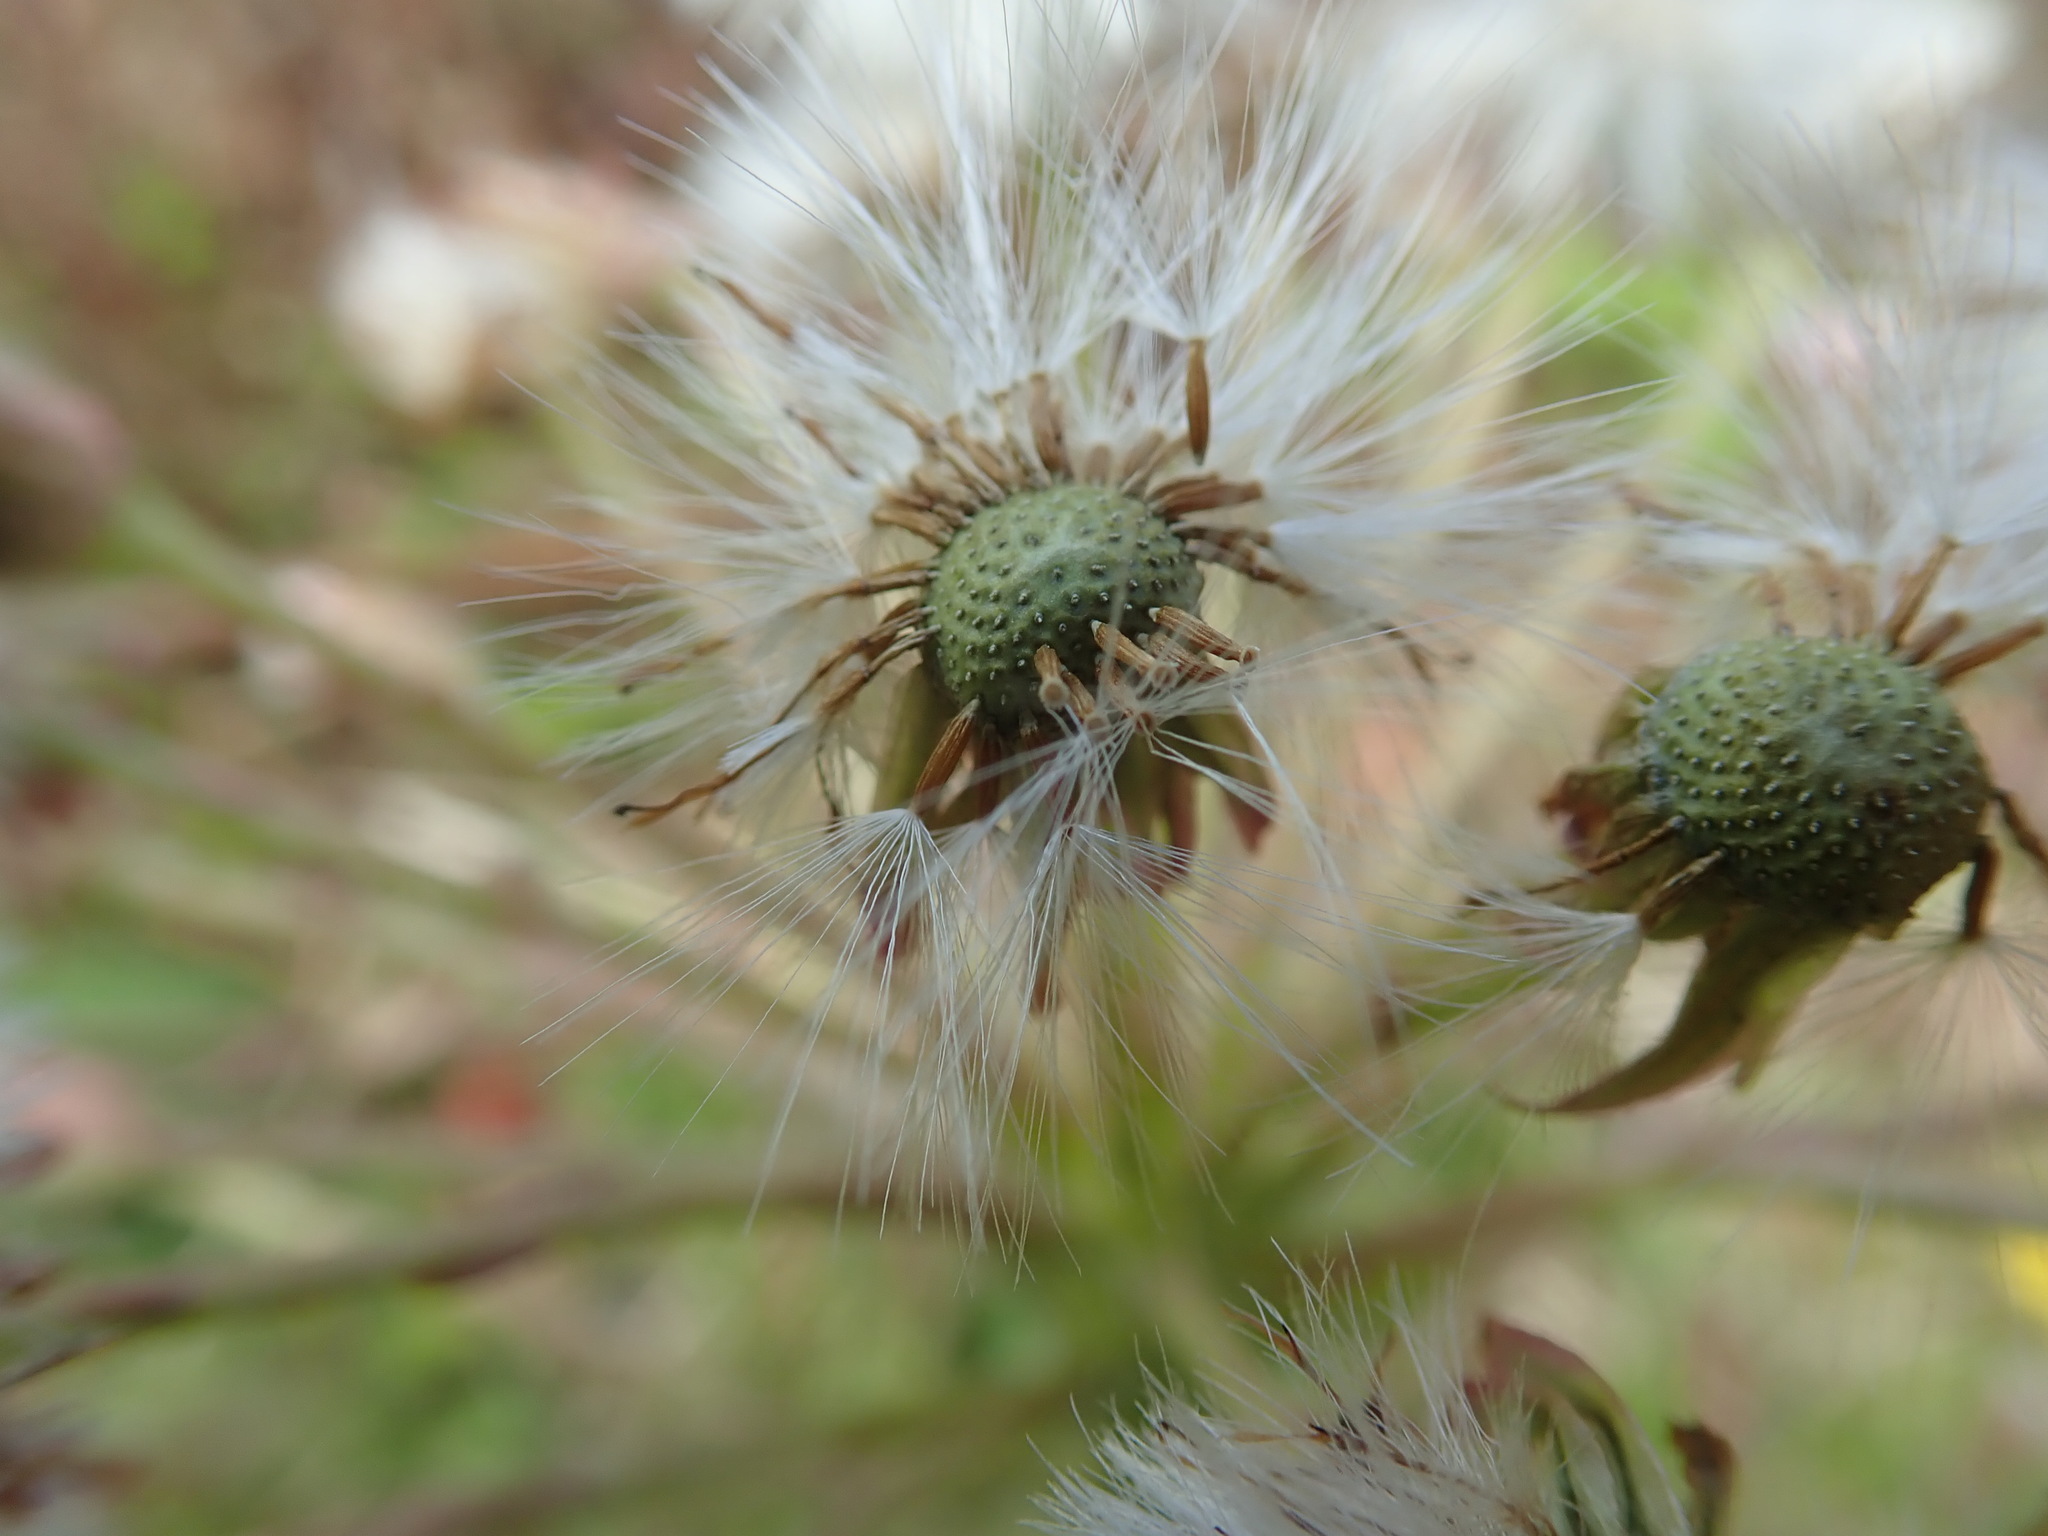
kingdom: Plantae
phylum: Tracheophyta
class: Magnoliopsida
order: Asterales
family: Asteraceae
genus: Petasites
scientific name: Petasites frigidus
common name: Arctic butterbur
